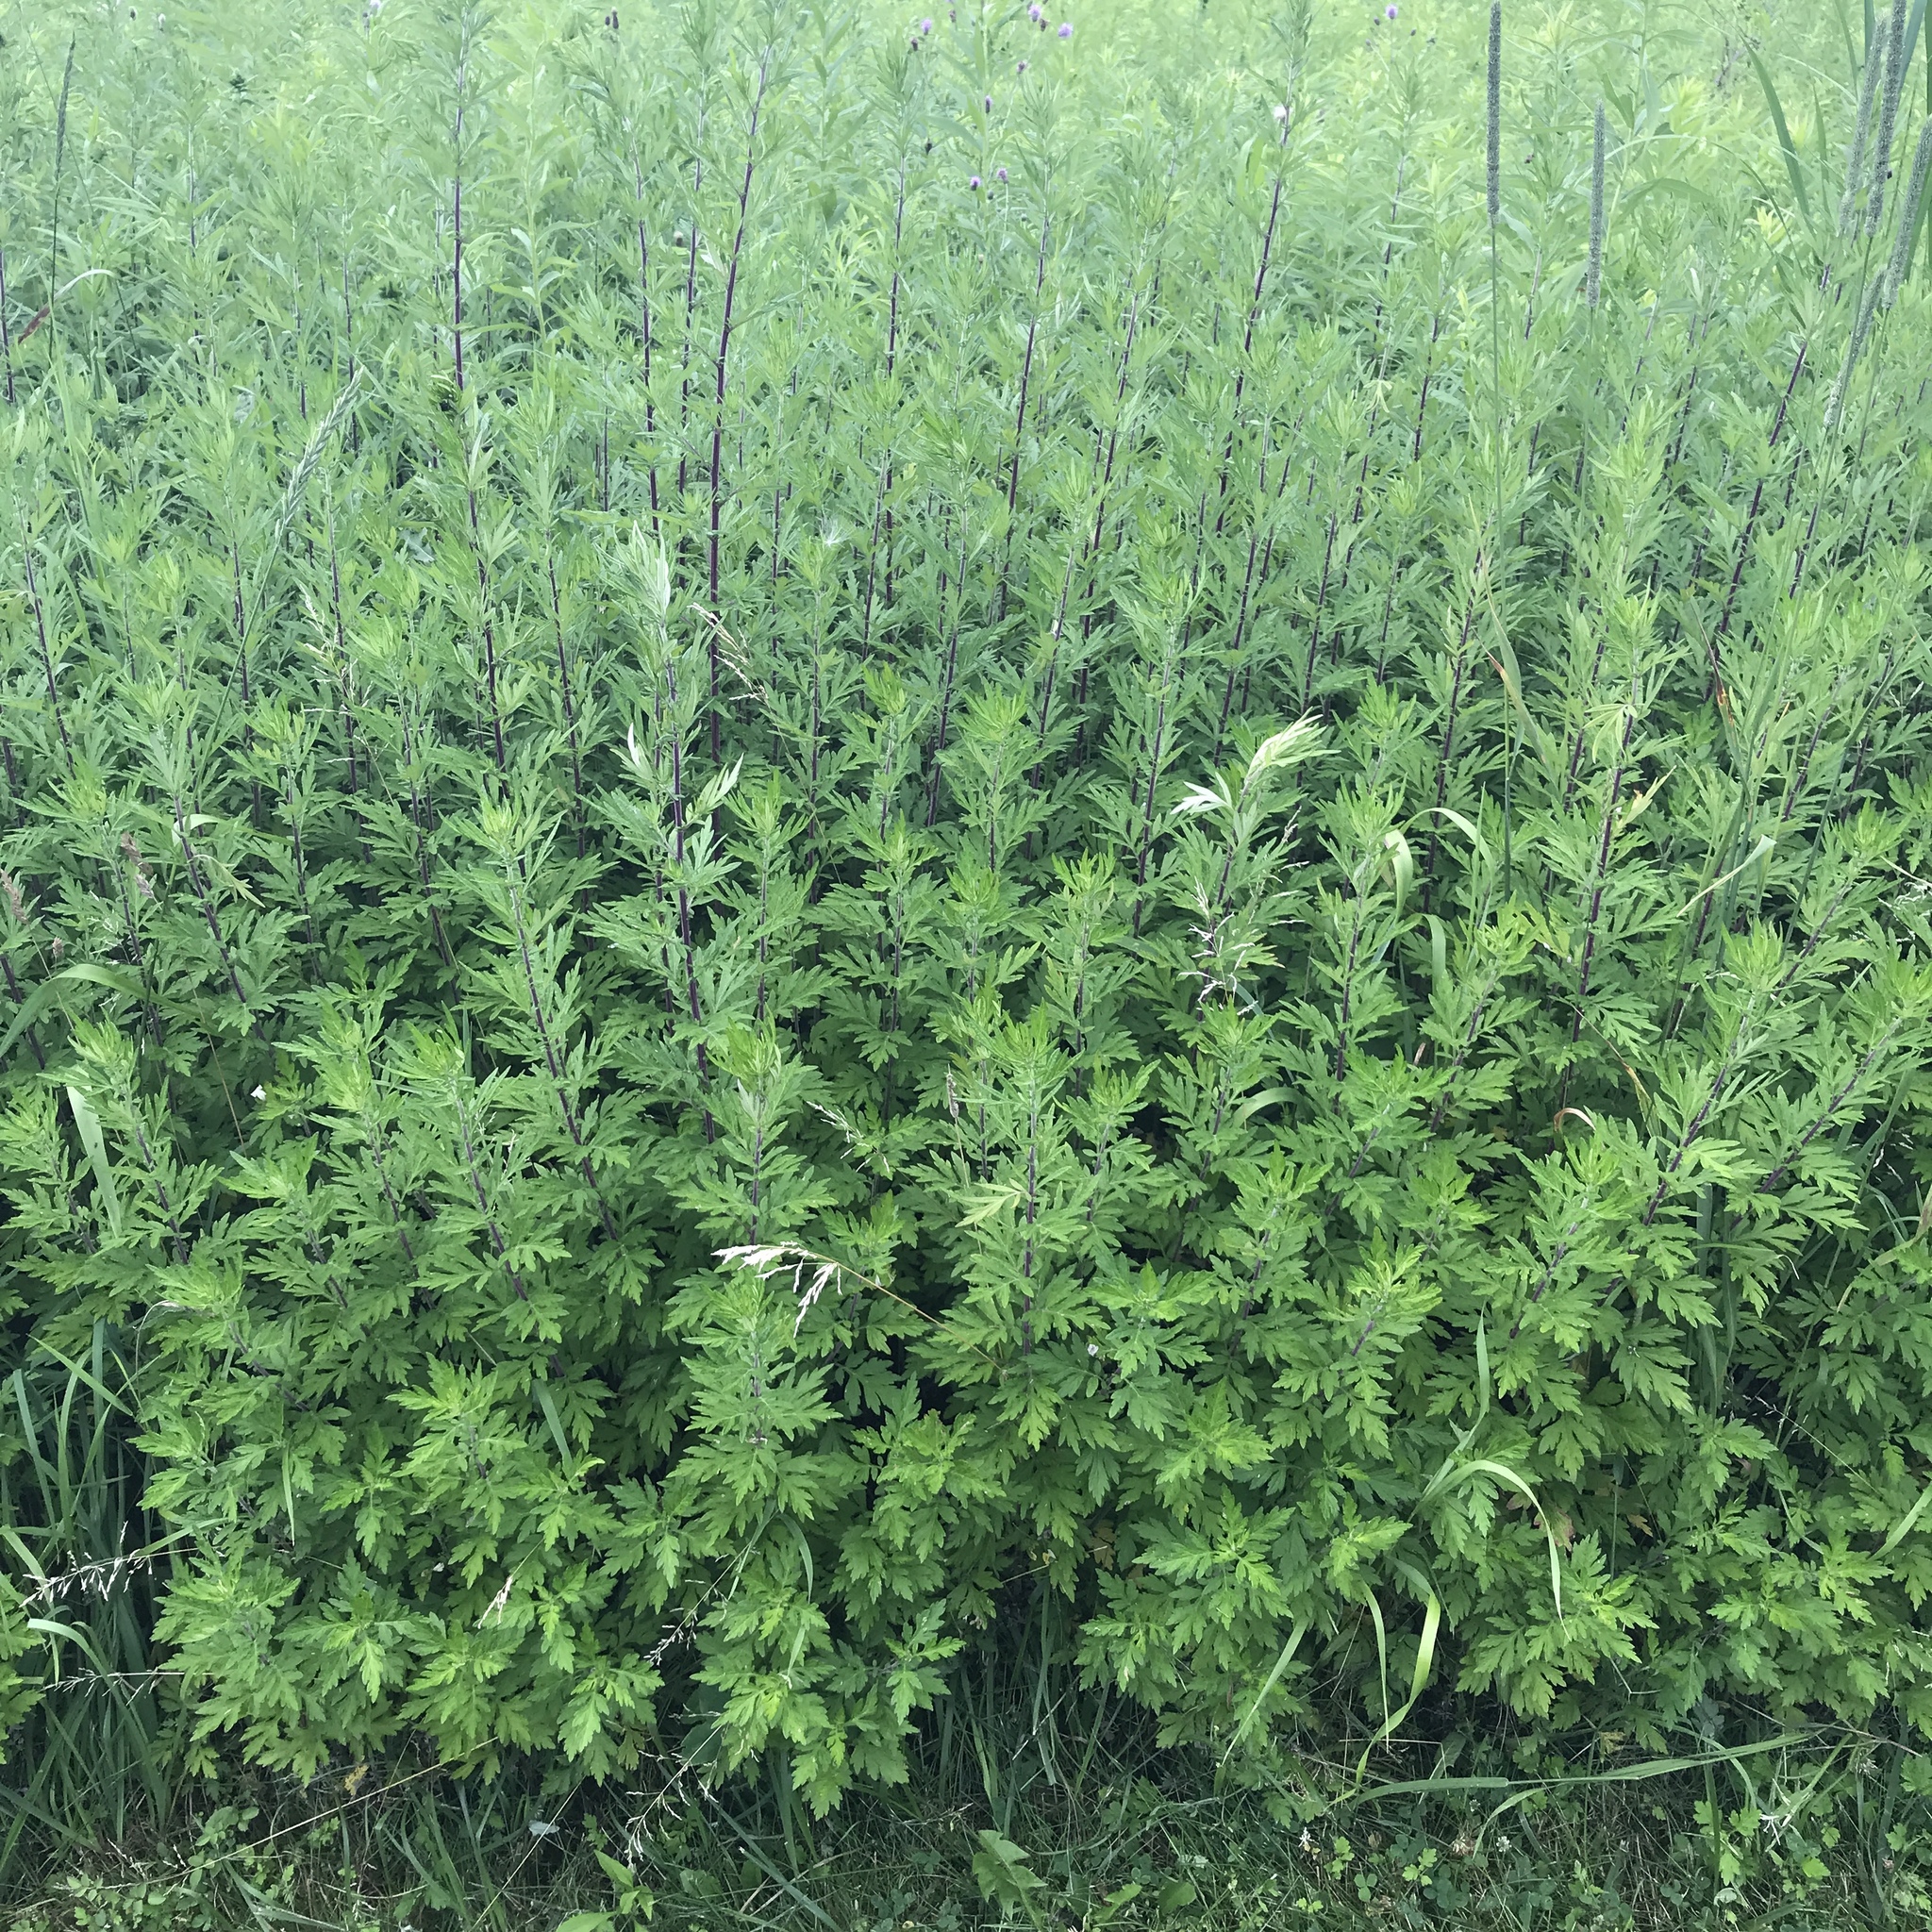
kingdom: Plantae
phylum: Tracheophyta
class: Magnoliopsida
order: Asterales
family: Asteraceae
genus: Artemisia
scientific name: Artemisia vulgaris
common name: Mugwort
